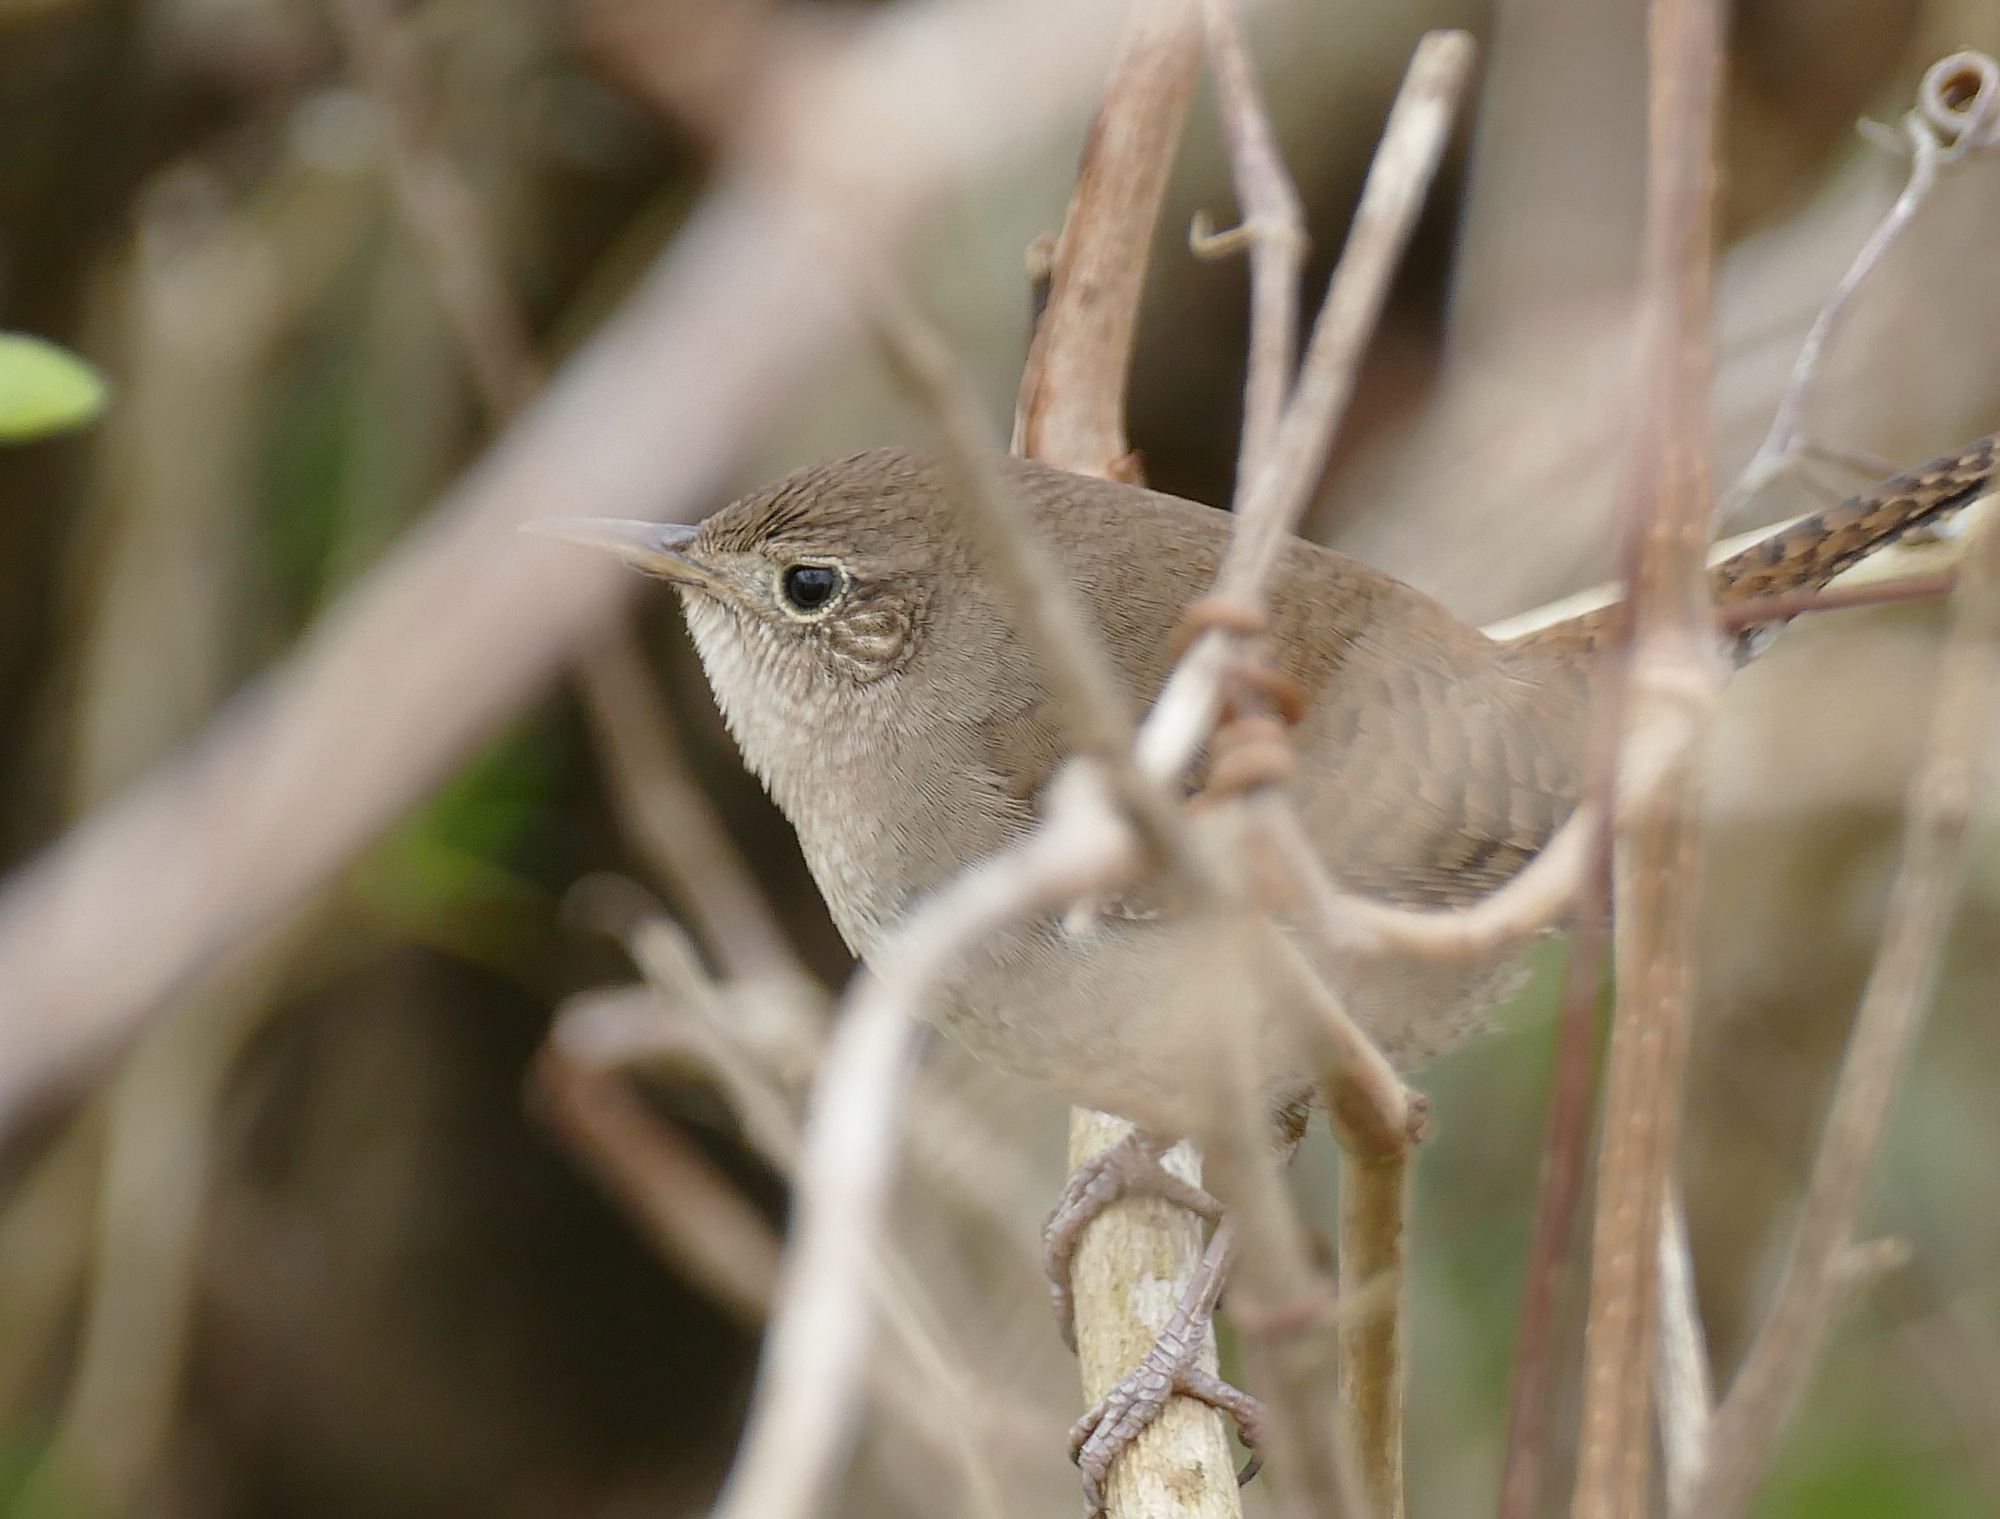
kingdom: Animalia
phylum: Chordata
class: Aves
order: Passeriformes
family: Troglodytidae
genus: Troglodytes
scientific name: Troglodytes aedon
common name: House wren
